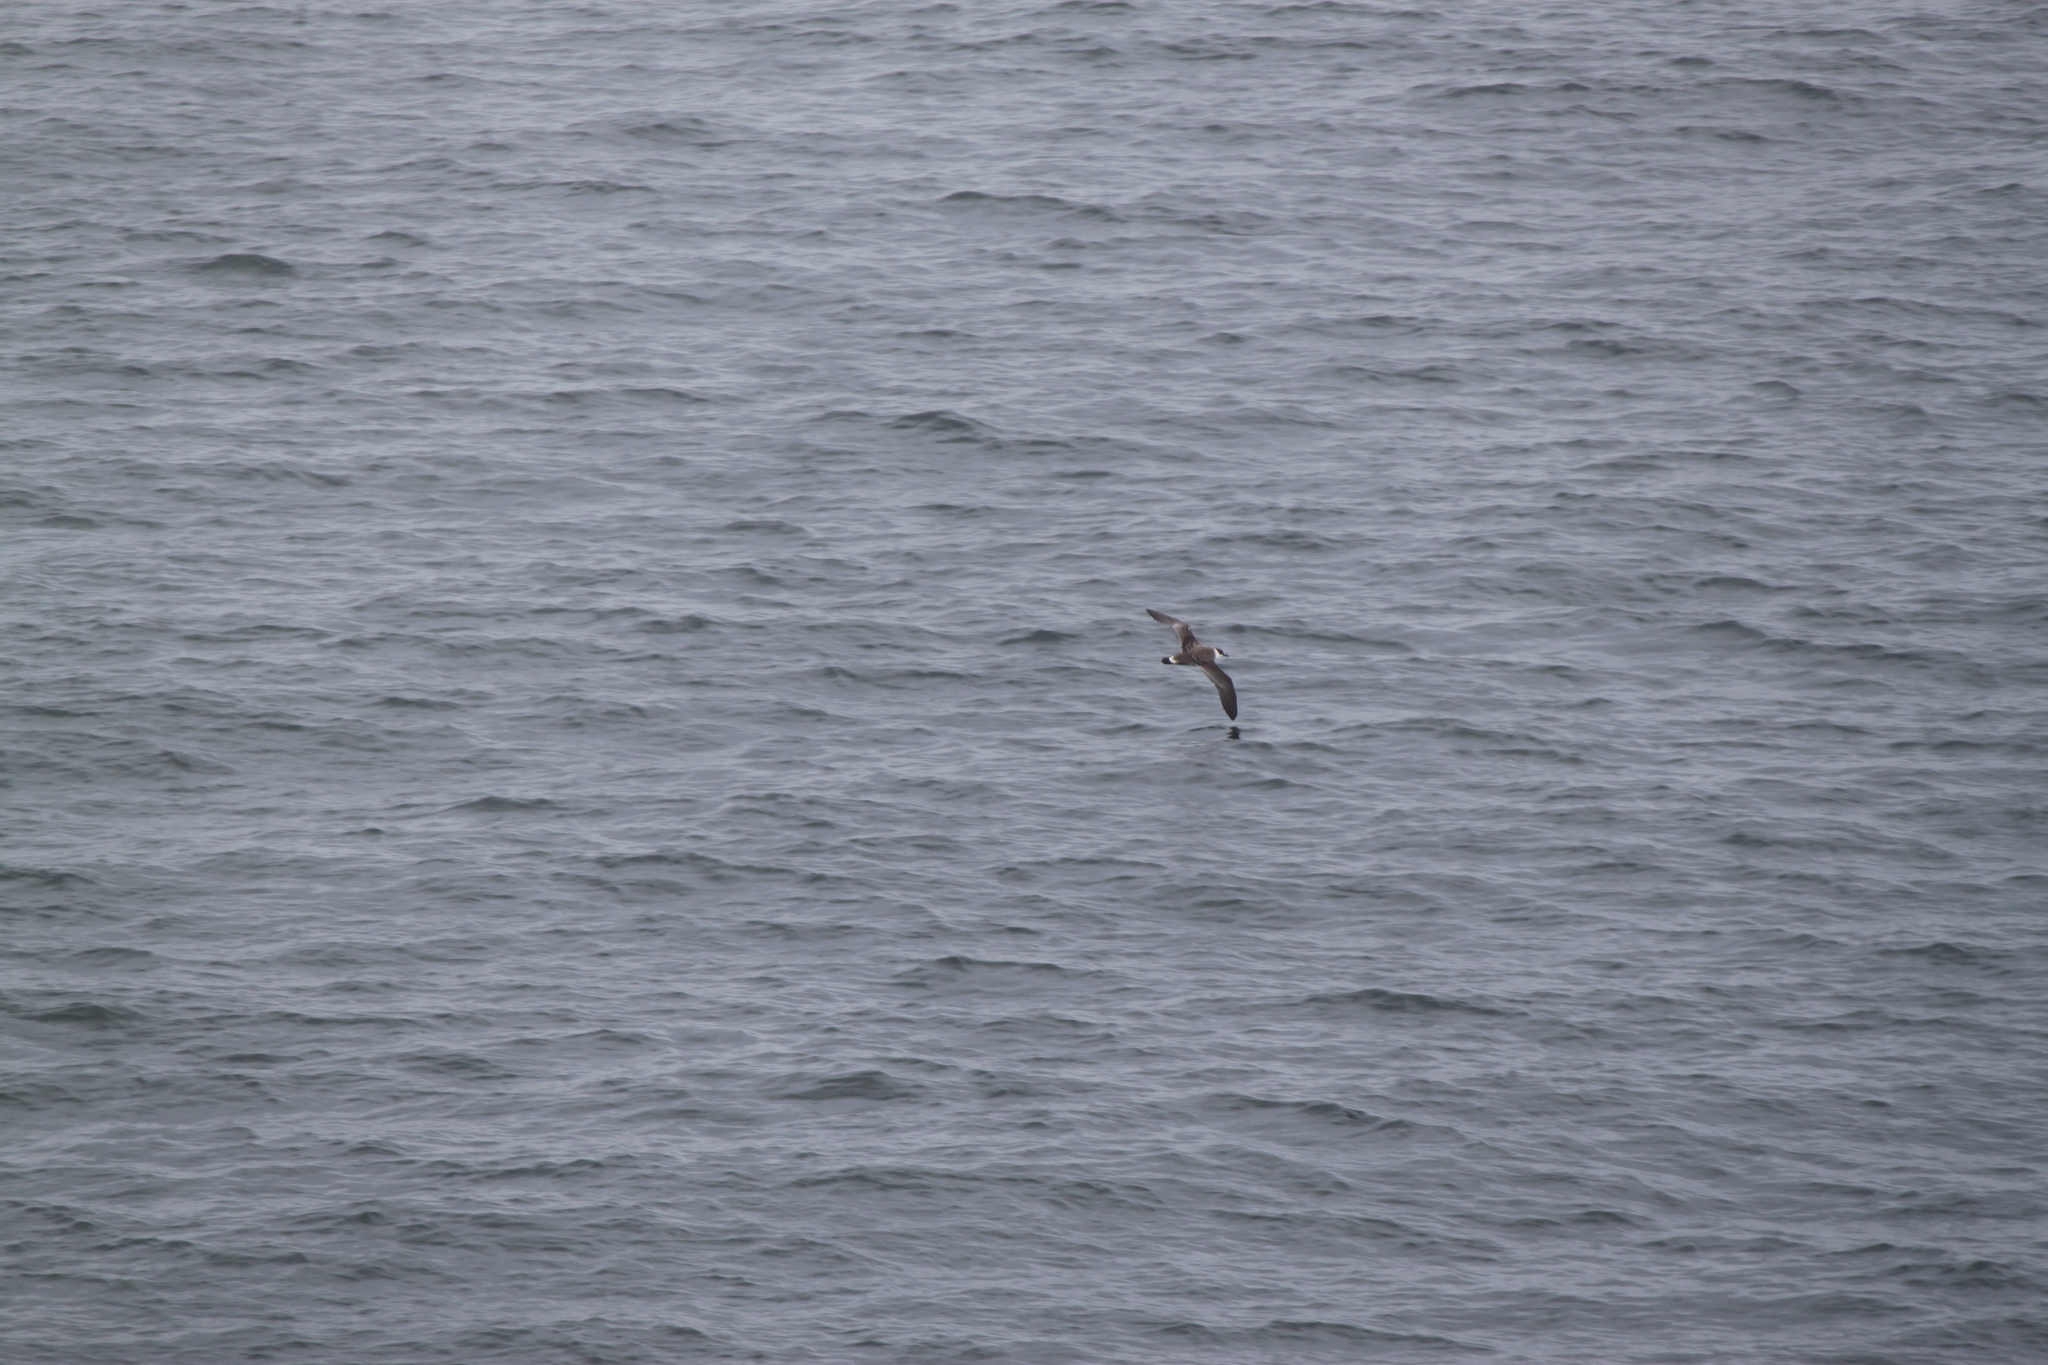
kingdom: Animalia
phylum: Chordata
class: Aves
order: Procellariiformes
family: Procellariidae
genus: Puffinus
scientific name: Puffinus gravis
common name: Great shearwater
